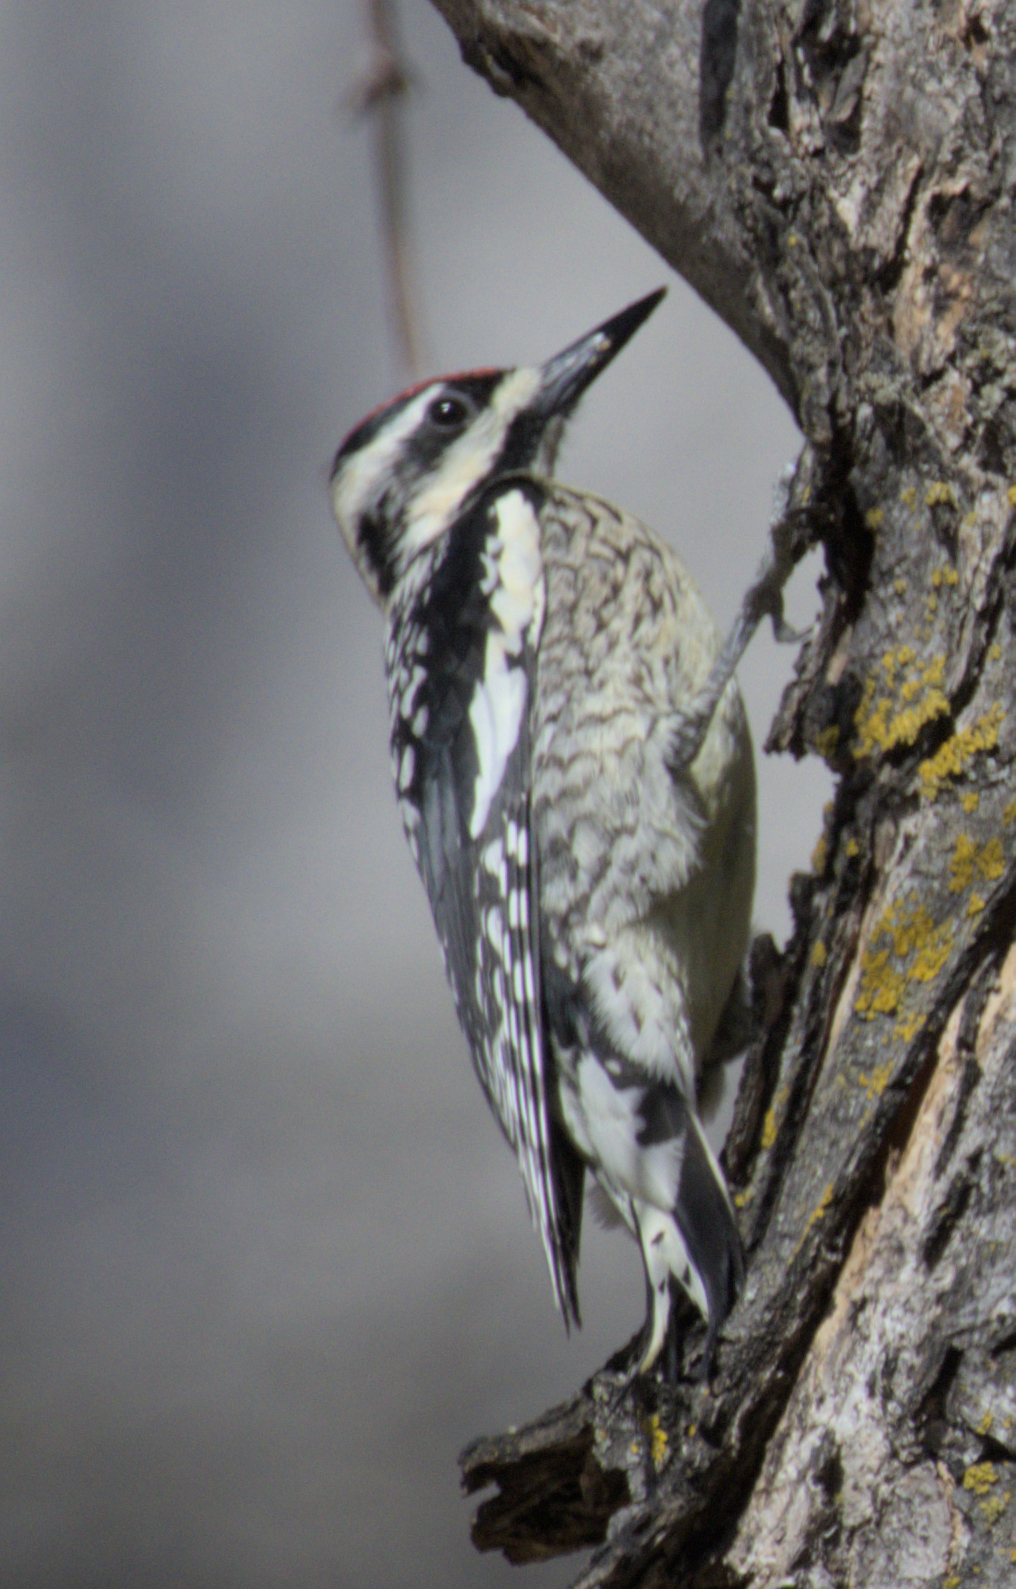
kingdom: Animalia
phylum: Chordata
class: Aves
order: Piciformes
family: Picidae
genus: Sphyrapicus
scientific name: Sphyrapicus varius
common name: Yellow-bellied sapsucker
